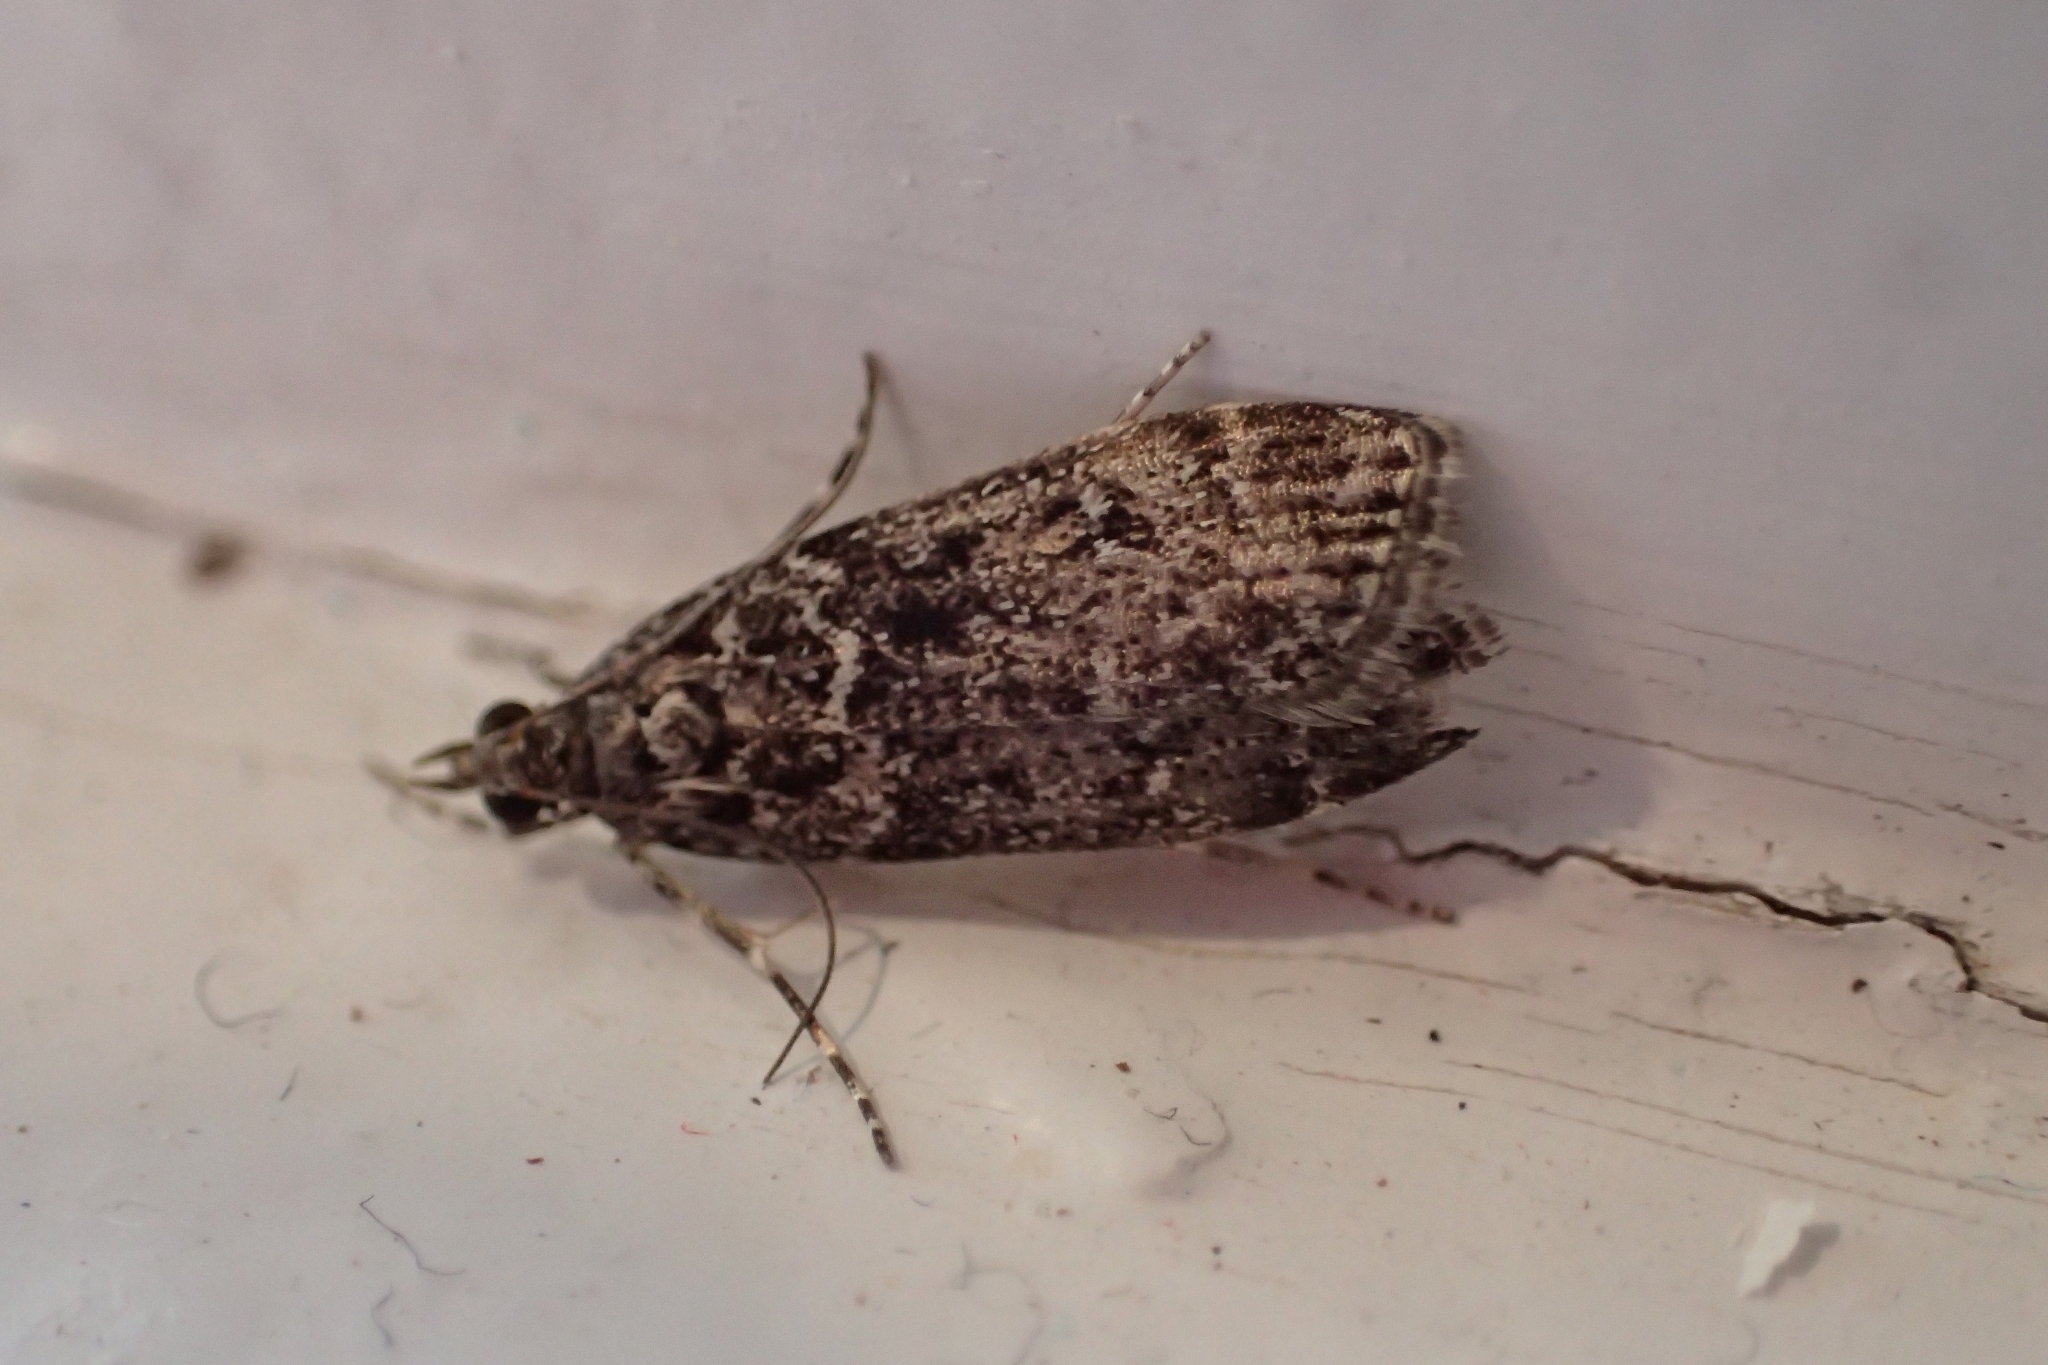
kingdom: Animalia
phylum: Arthropoda
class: Insecta
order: Lepidoptera
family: Crambidae
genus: Eudonia
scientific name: Eudonia philerga
